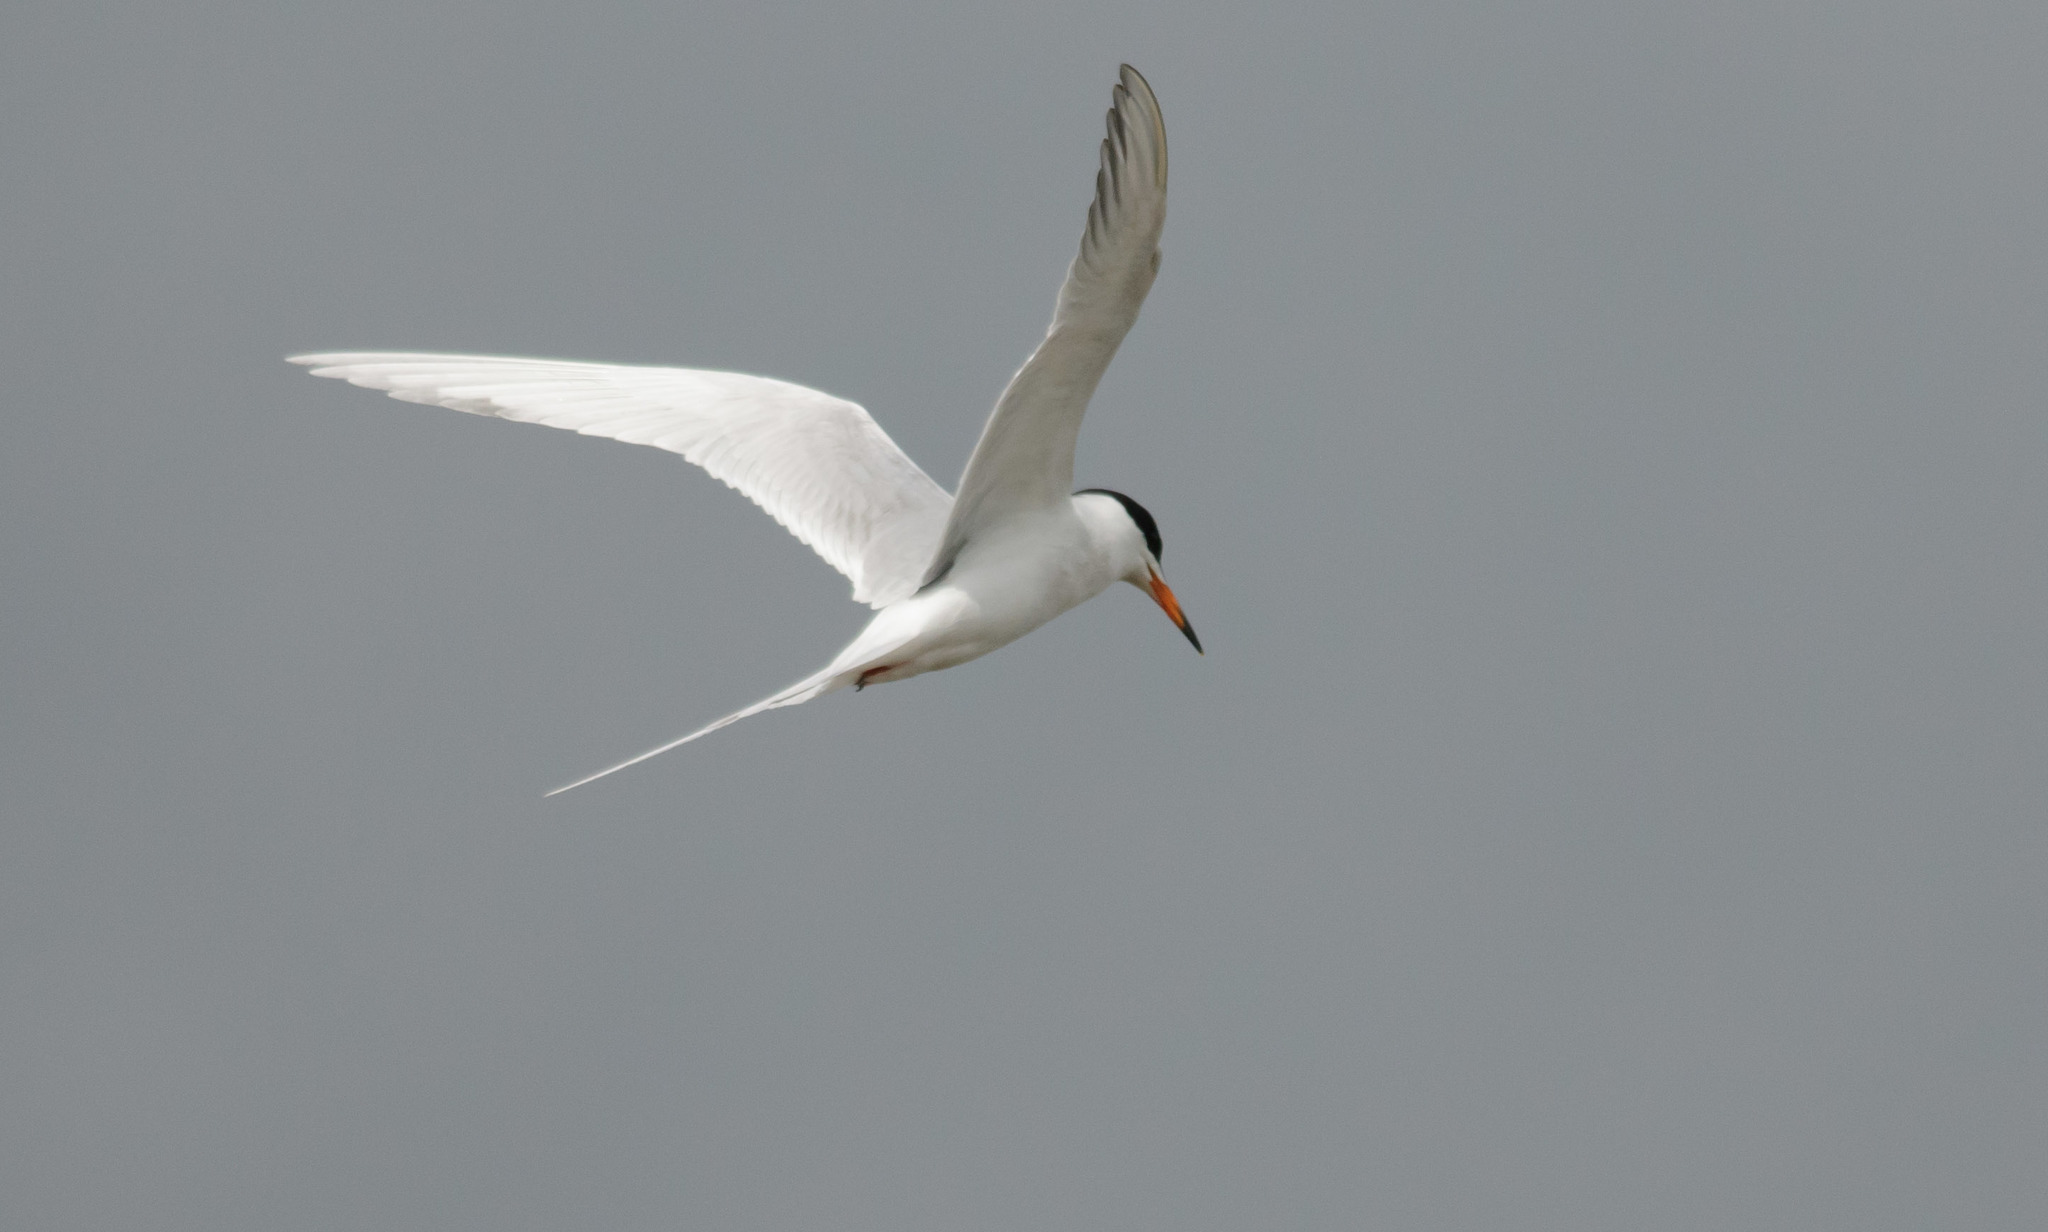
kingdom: Animalia
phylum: Chordata
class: Aves
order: Charadriiformes
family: Laridae
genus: Sterna
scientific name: Sterna forsteri
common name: Forster's tern
